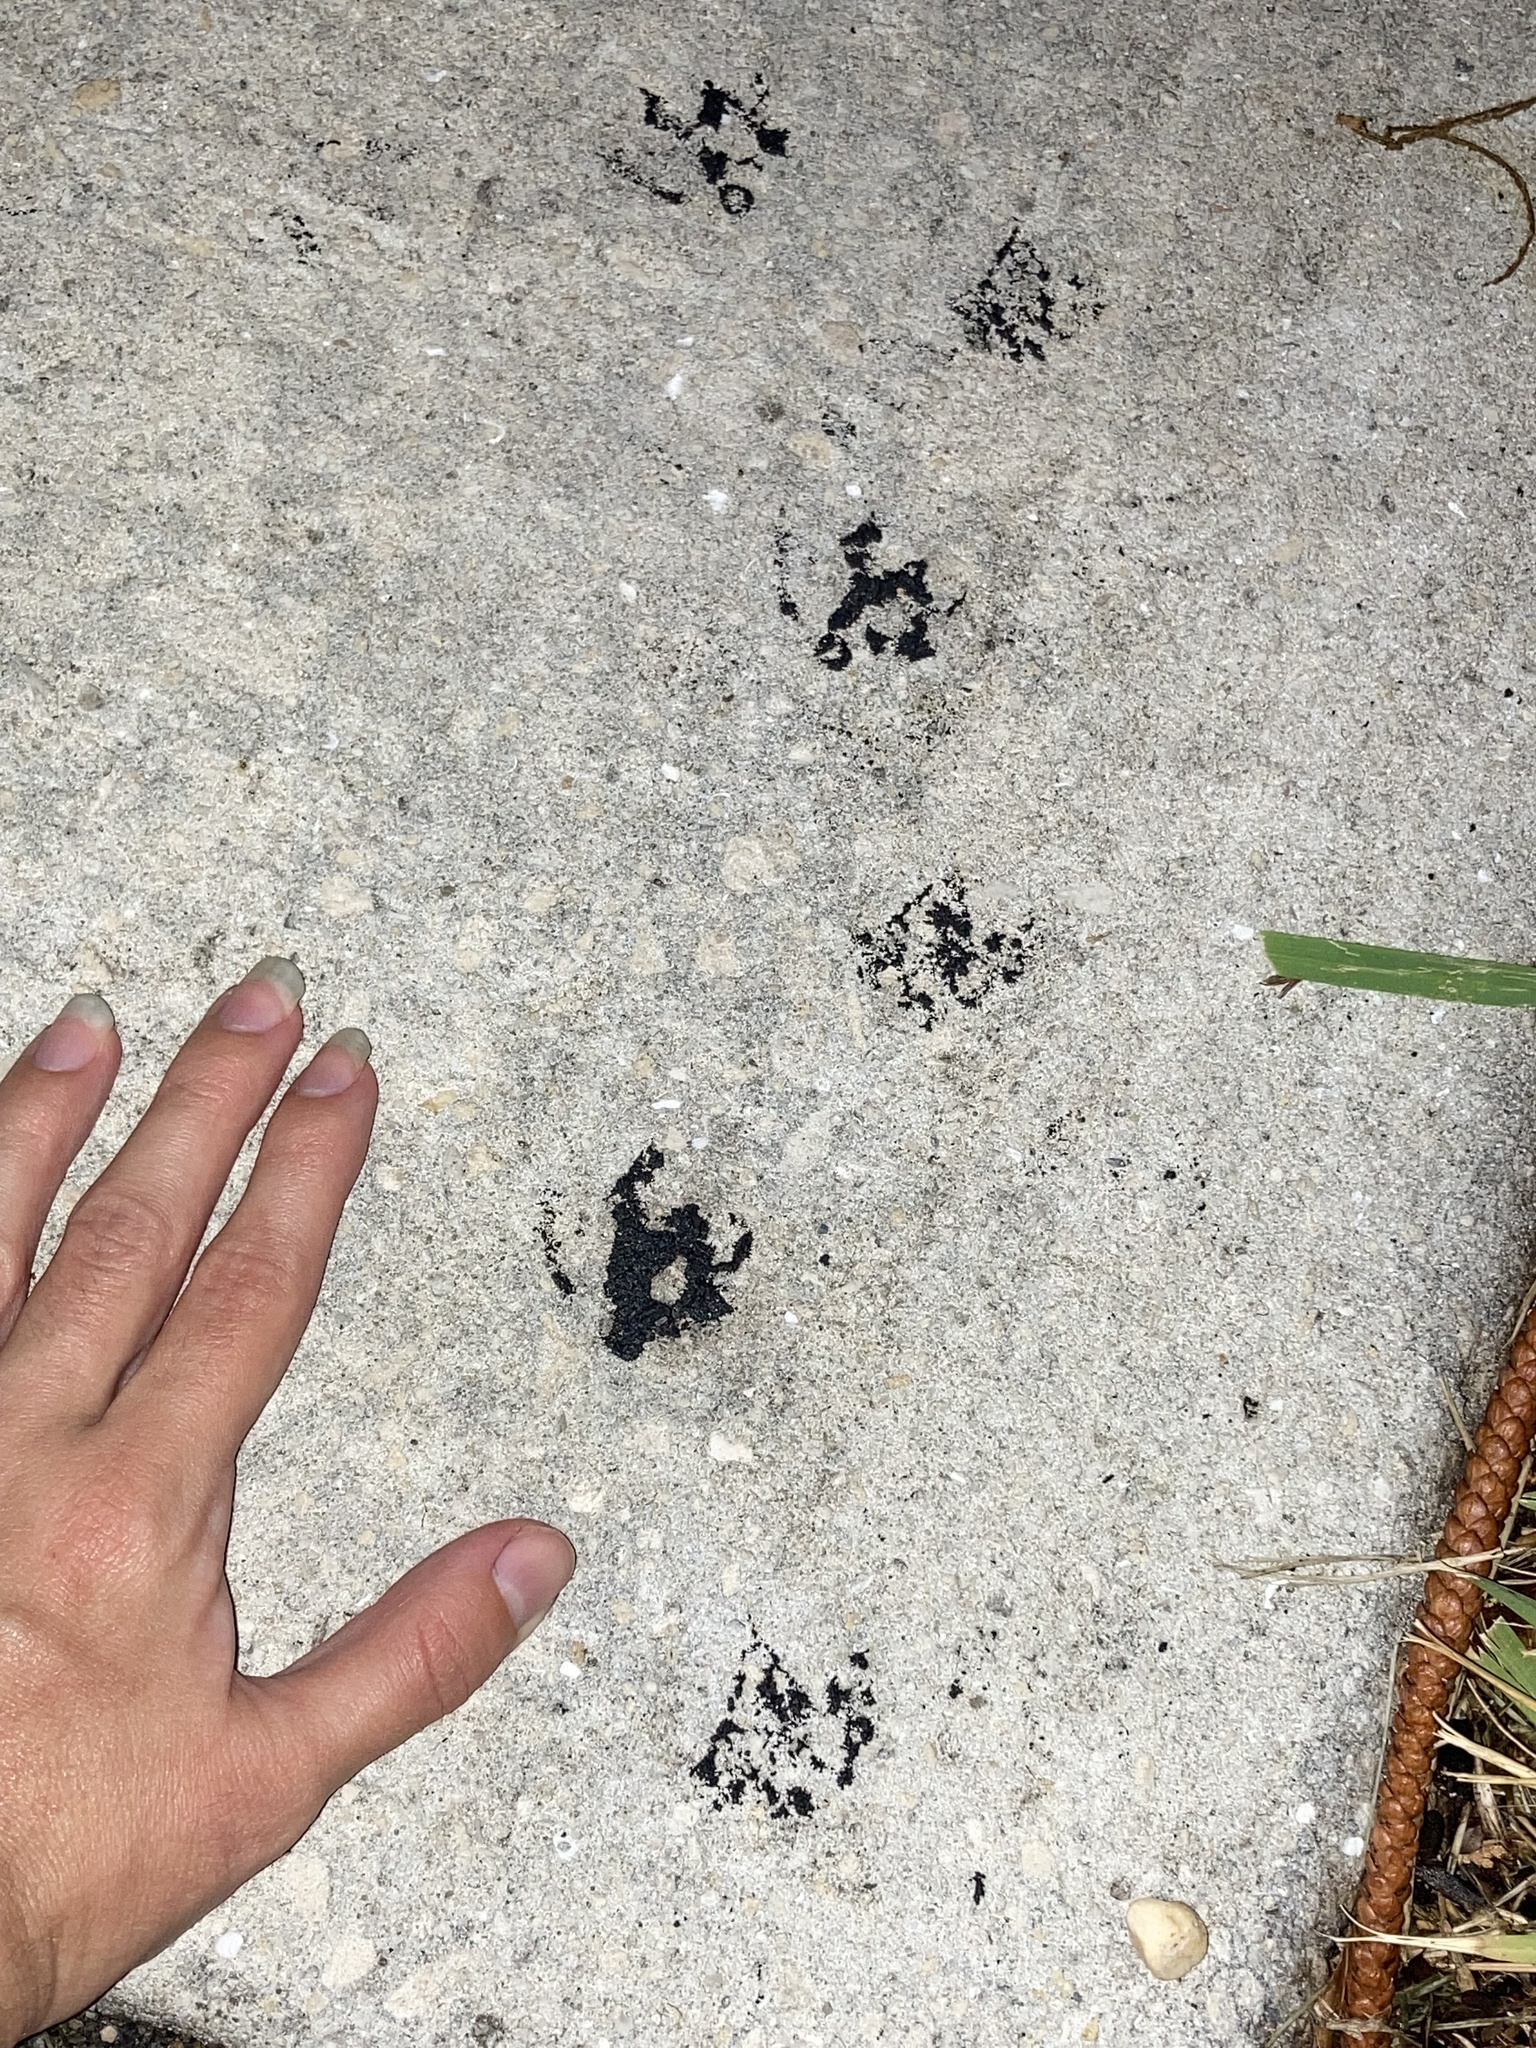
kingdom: Animalia
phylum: Chordata
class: Aves
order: Anseriformes
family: Anatidae
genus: Cairina
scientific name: Cairina moschata
